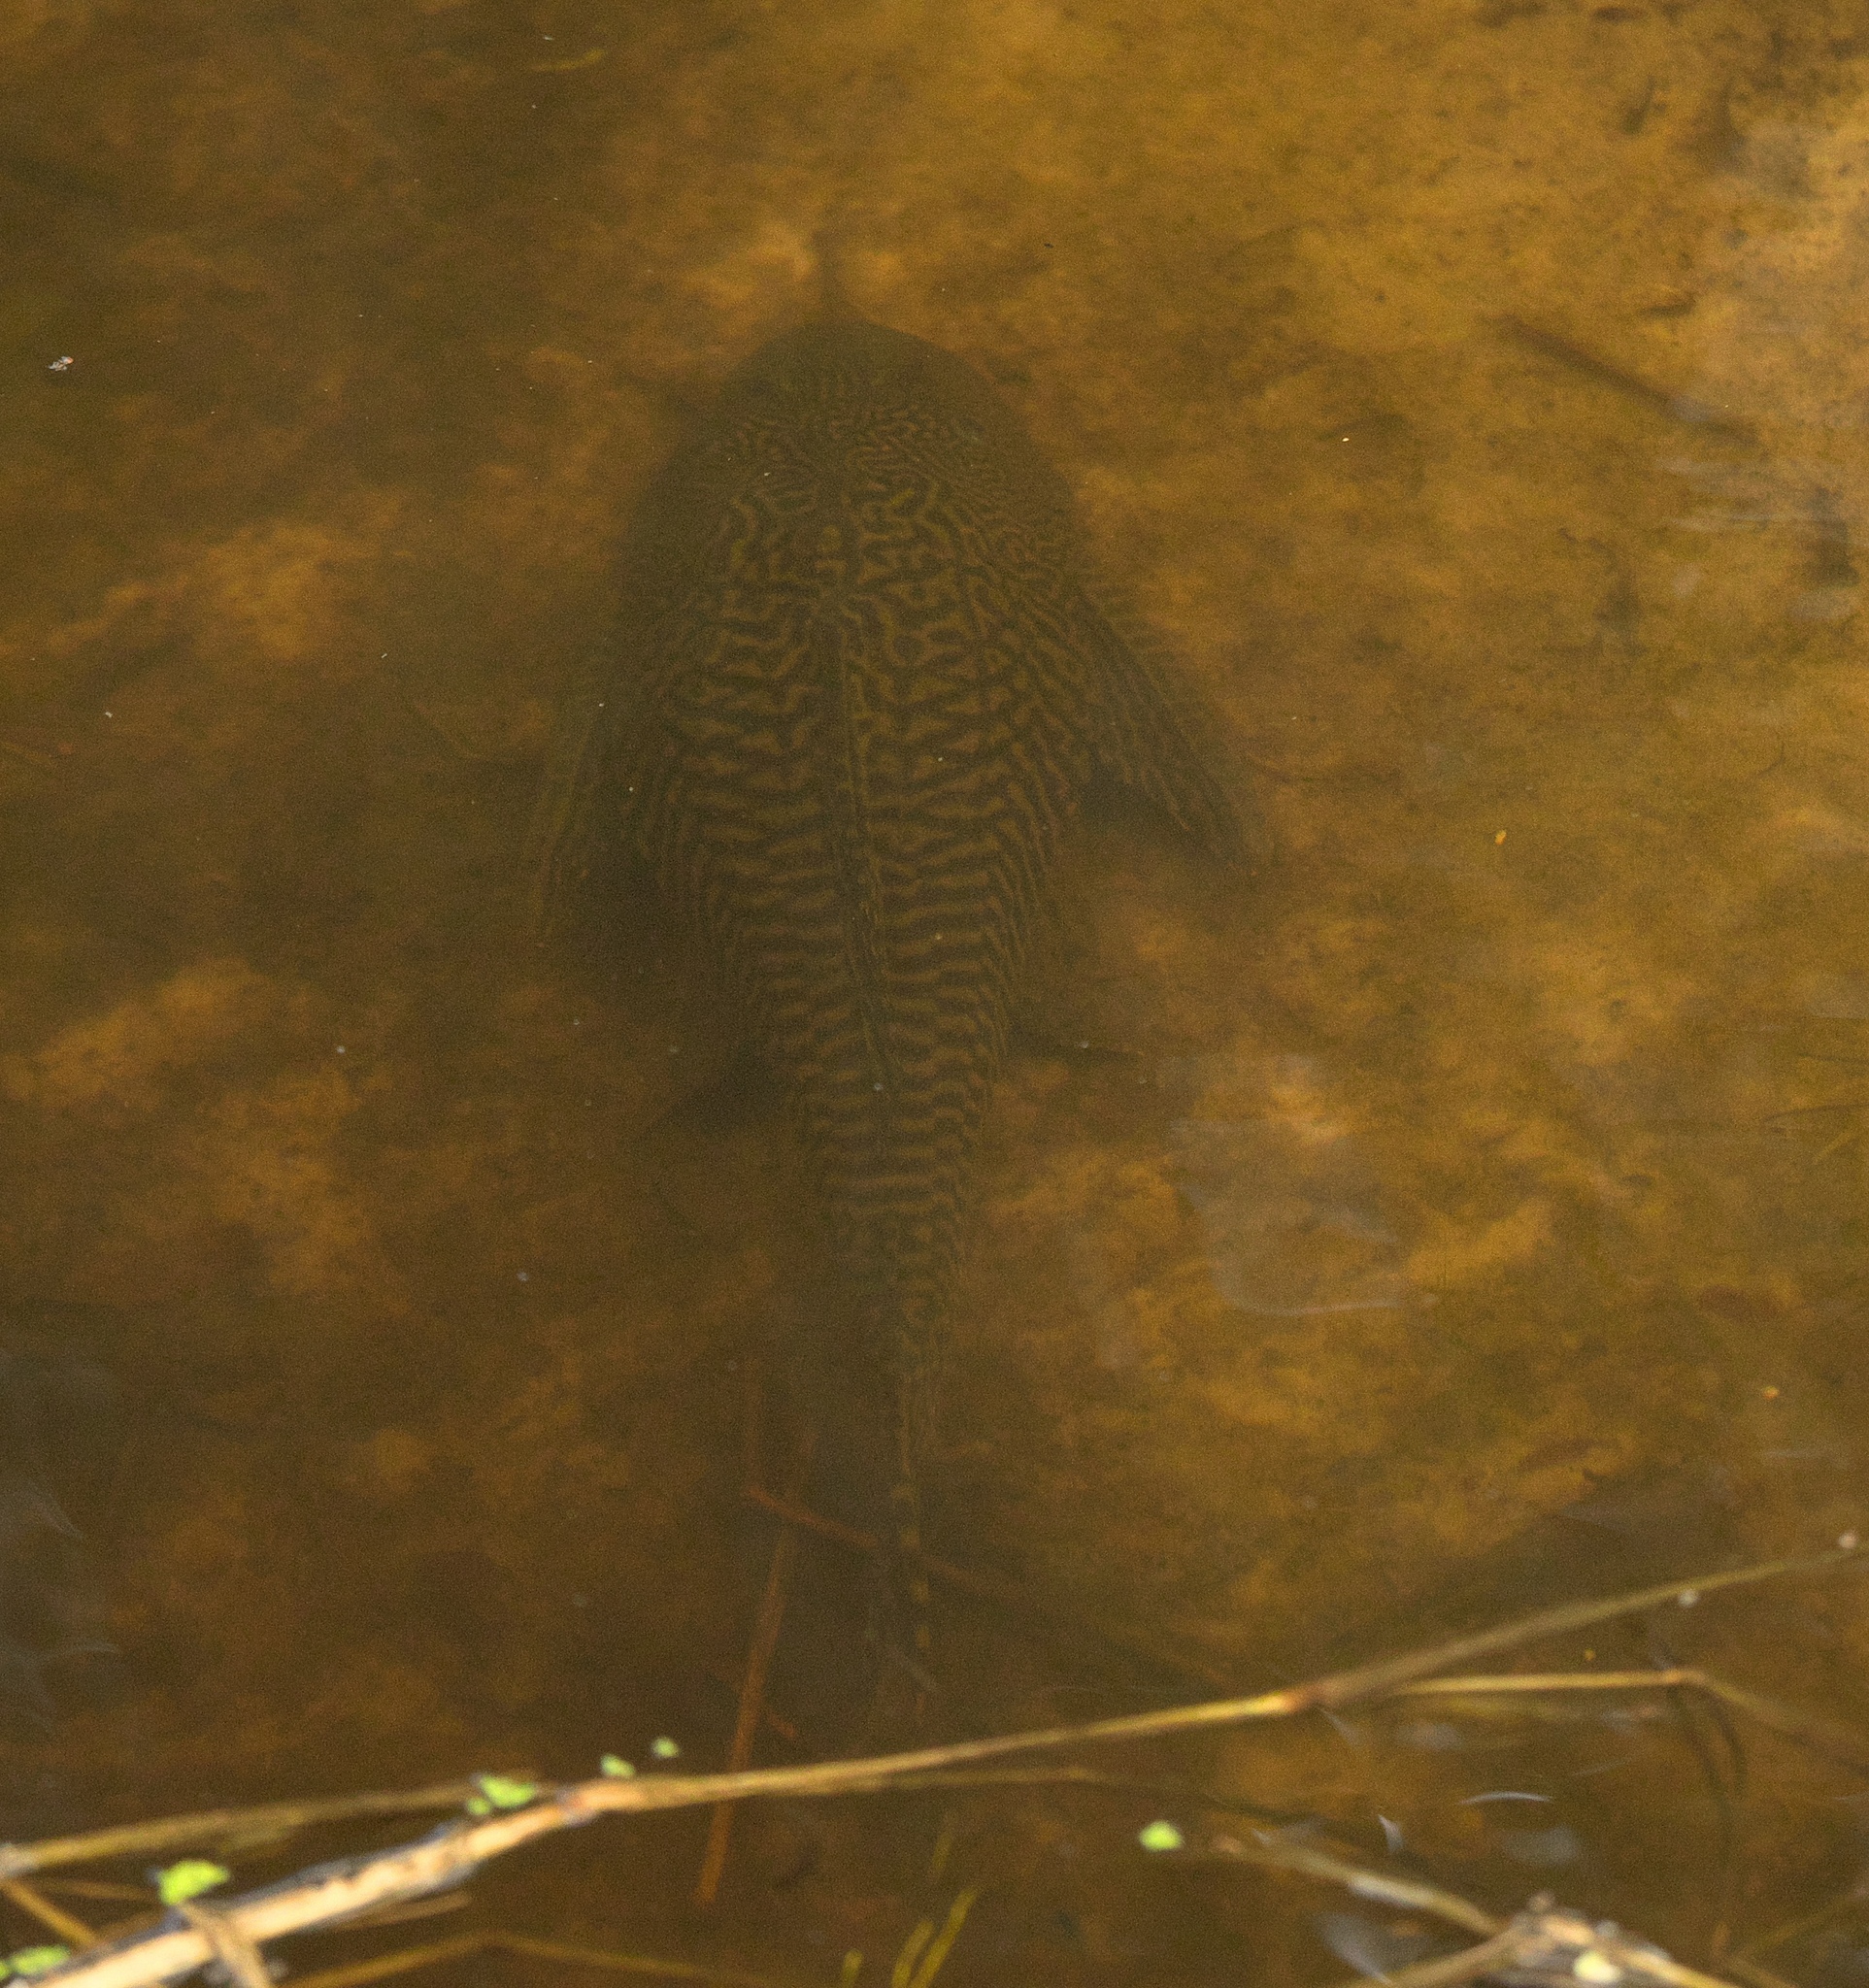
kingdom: Animalia
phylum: Chordata
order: Siluriformes
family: Loricariidae
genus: Pterygoplichthys
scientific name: Pterygoplichthys
